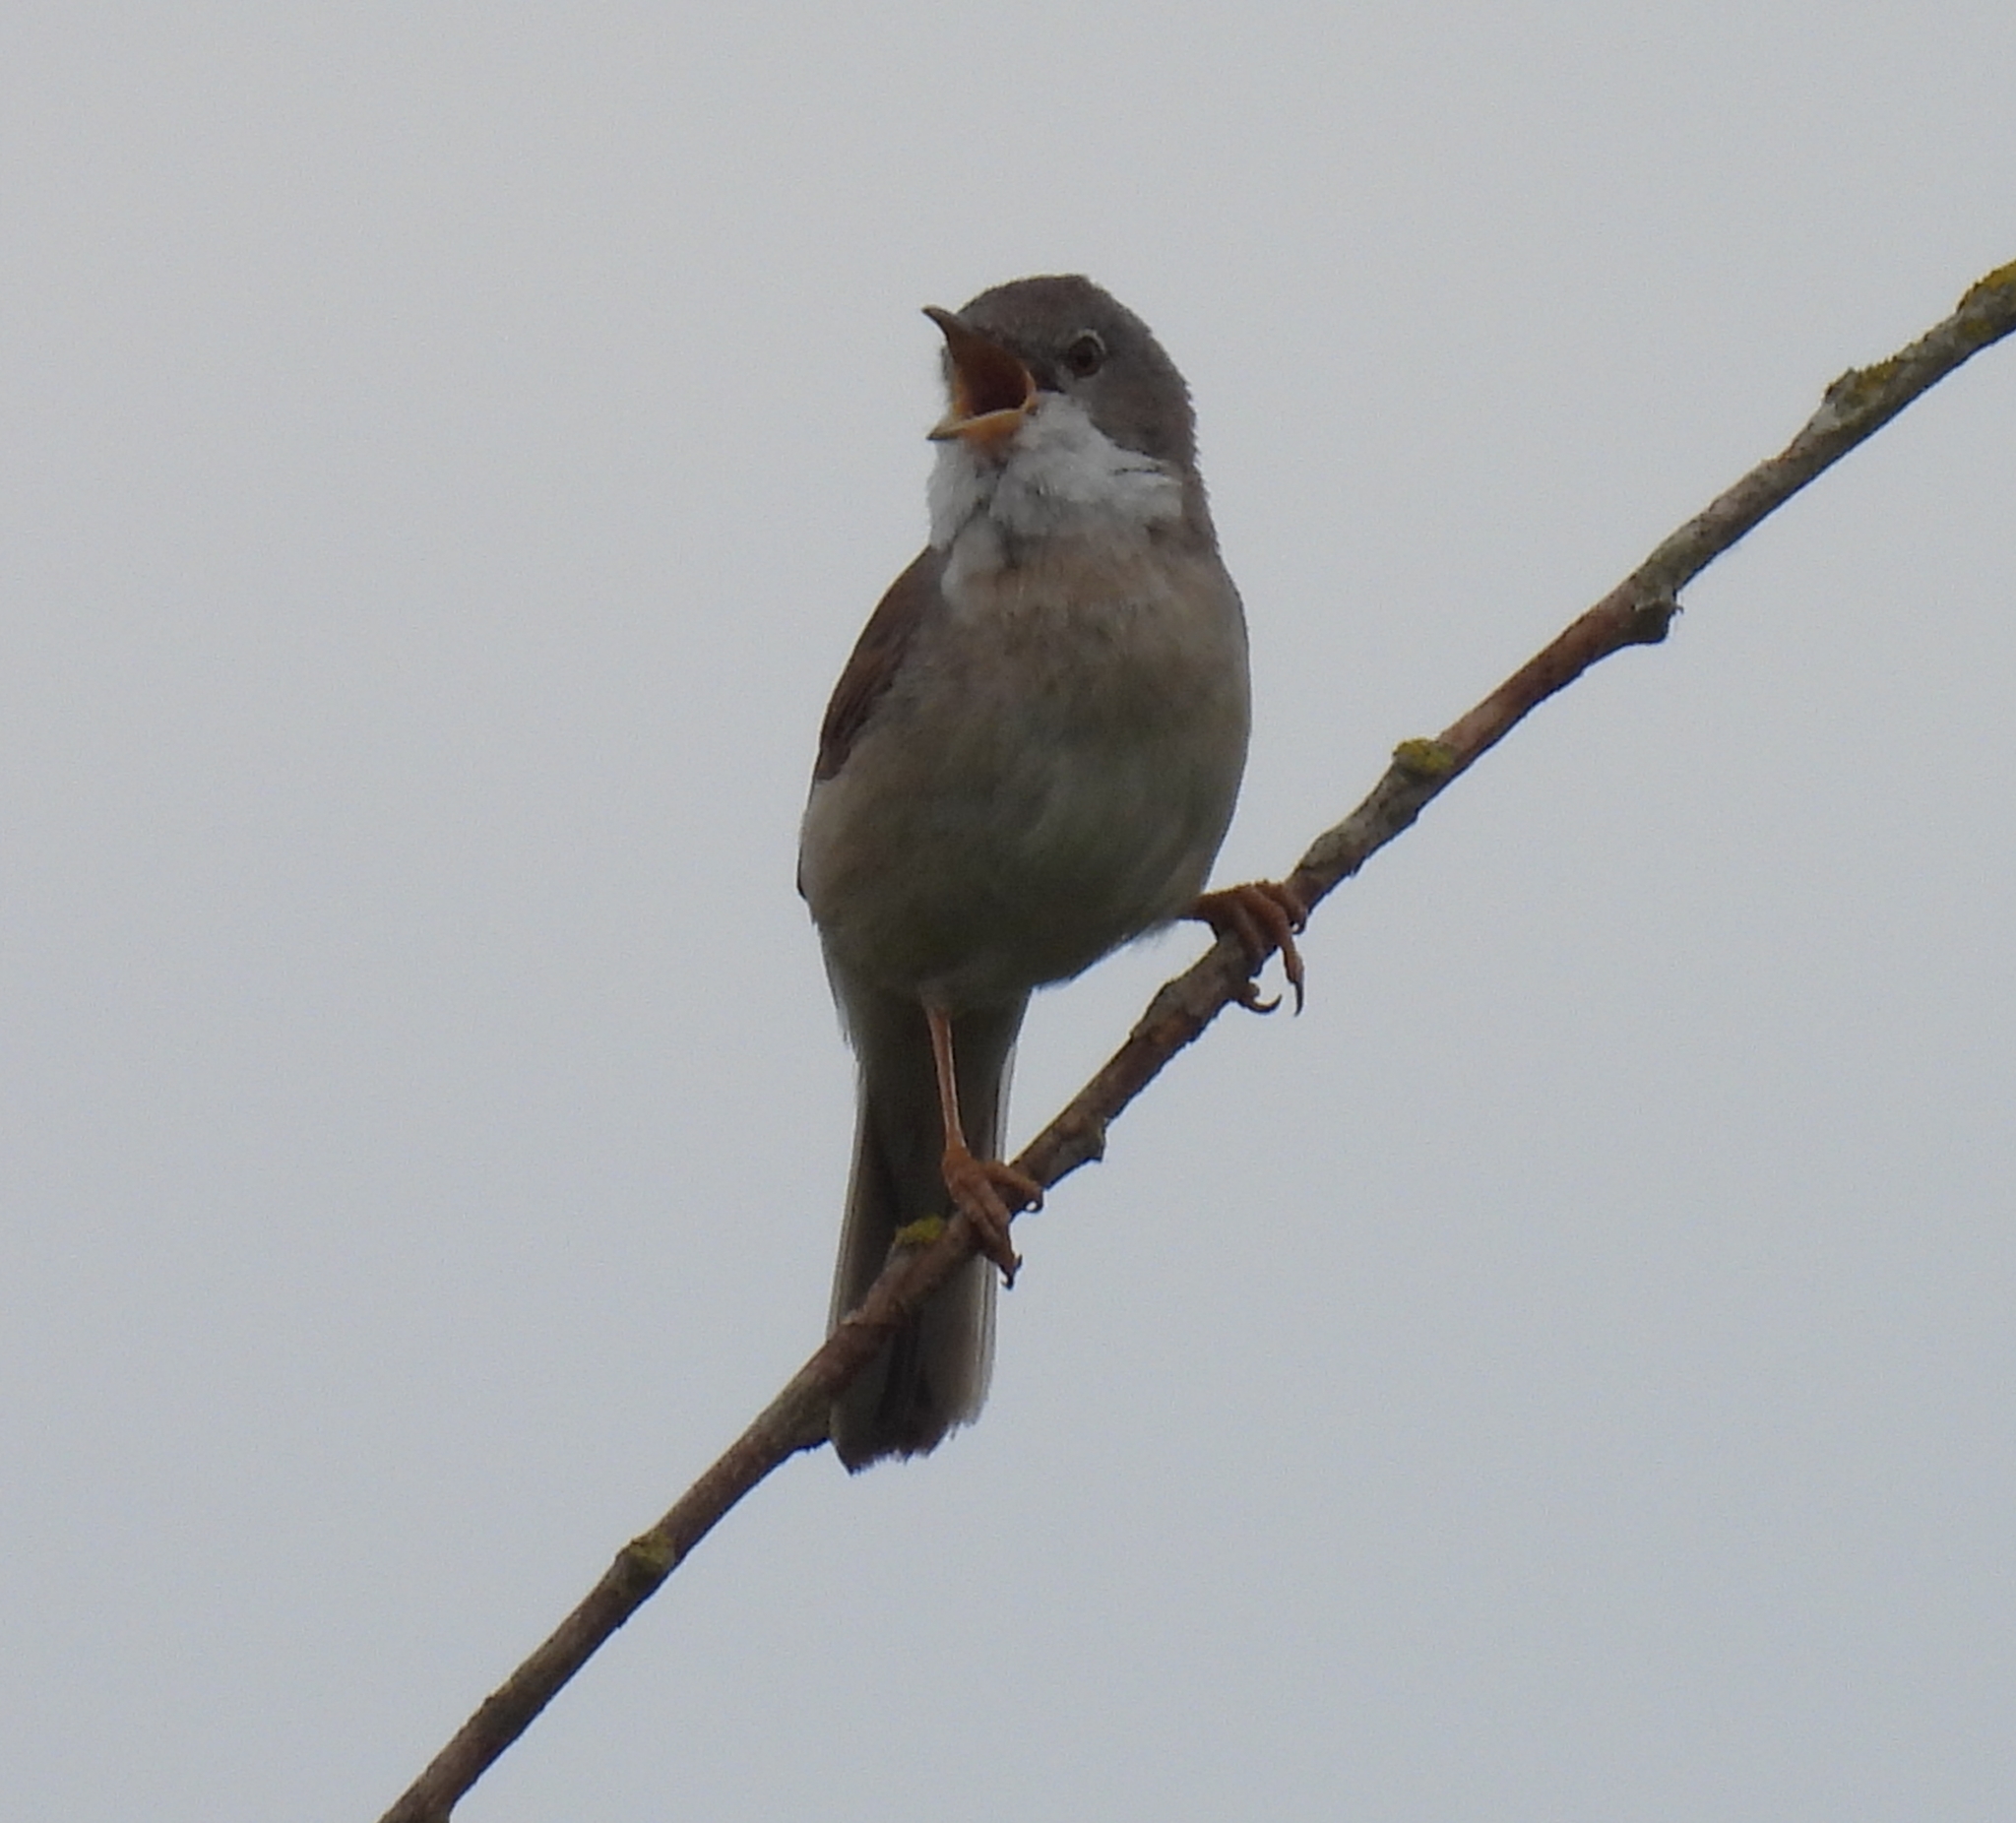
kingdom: Animalia
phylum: Chordata
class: Aves
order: Passeriformes
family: Sylviidae
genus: Sylvia
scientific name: Sylvia communis
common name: Common whitethroat
